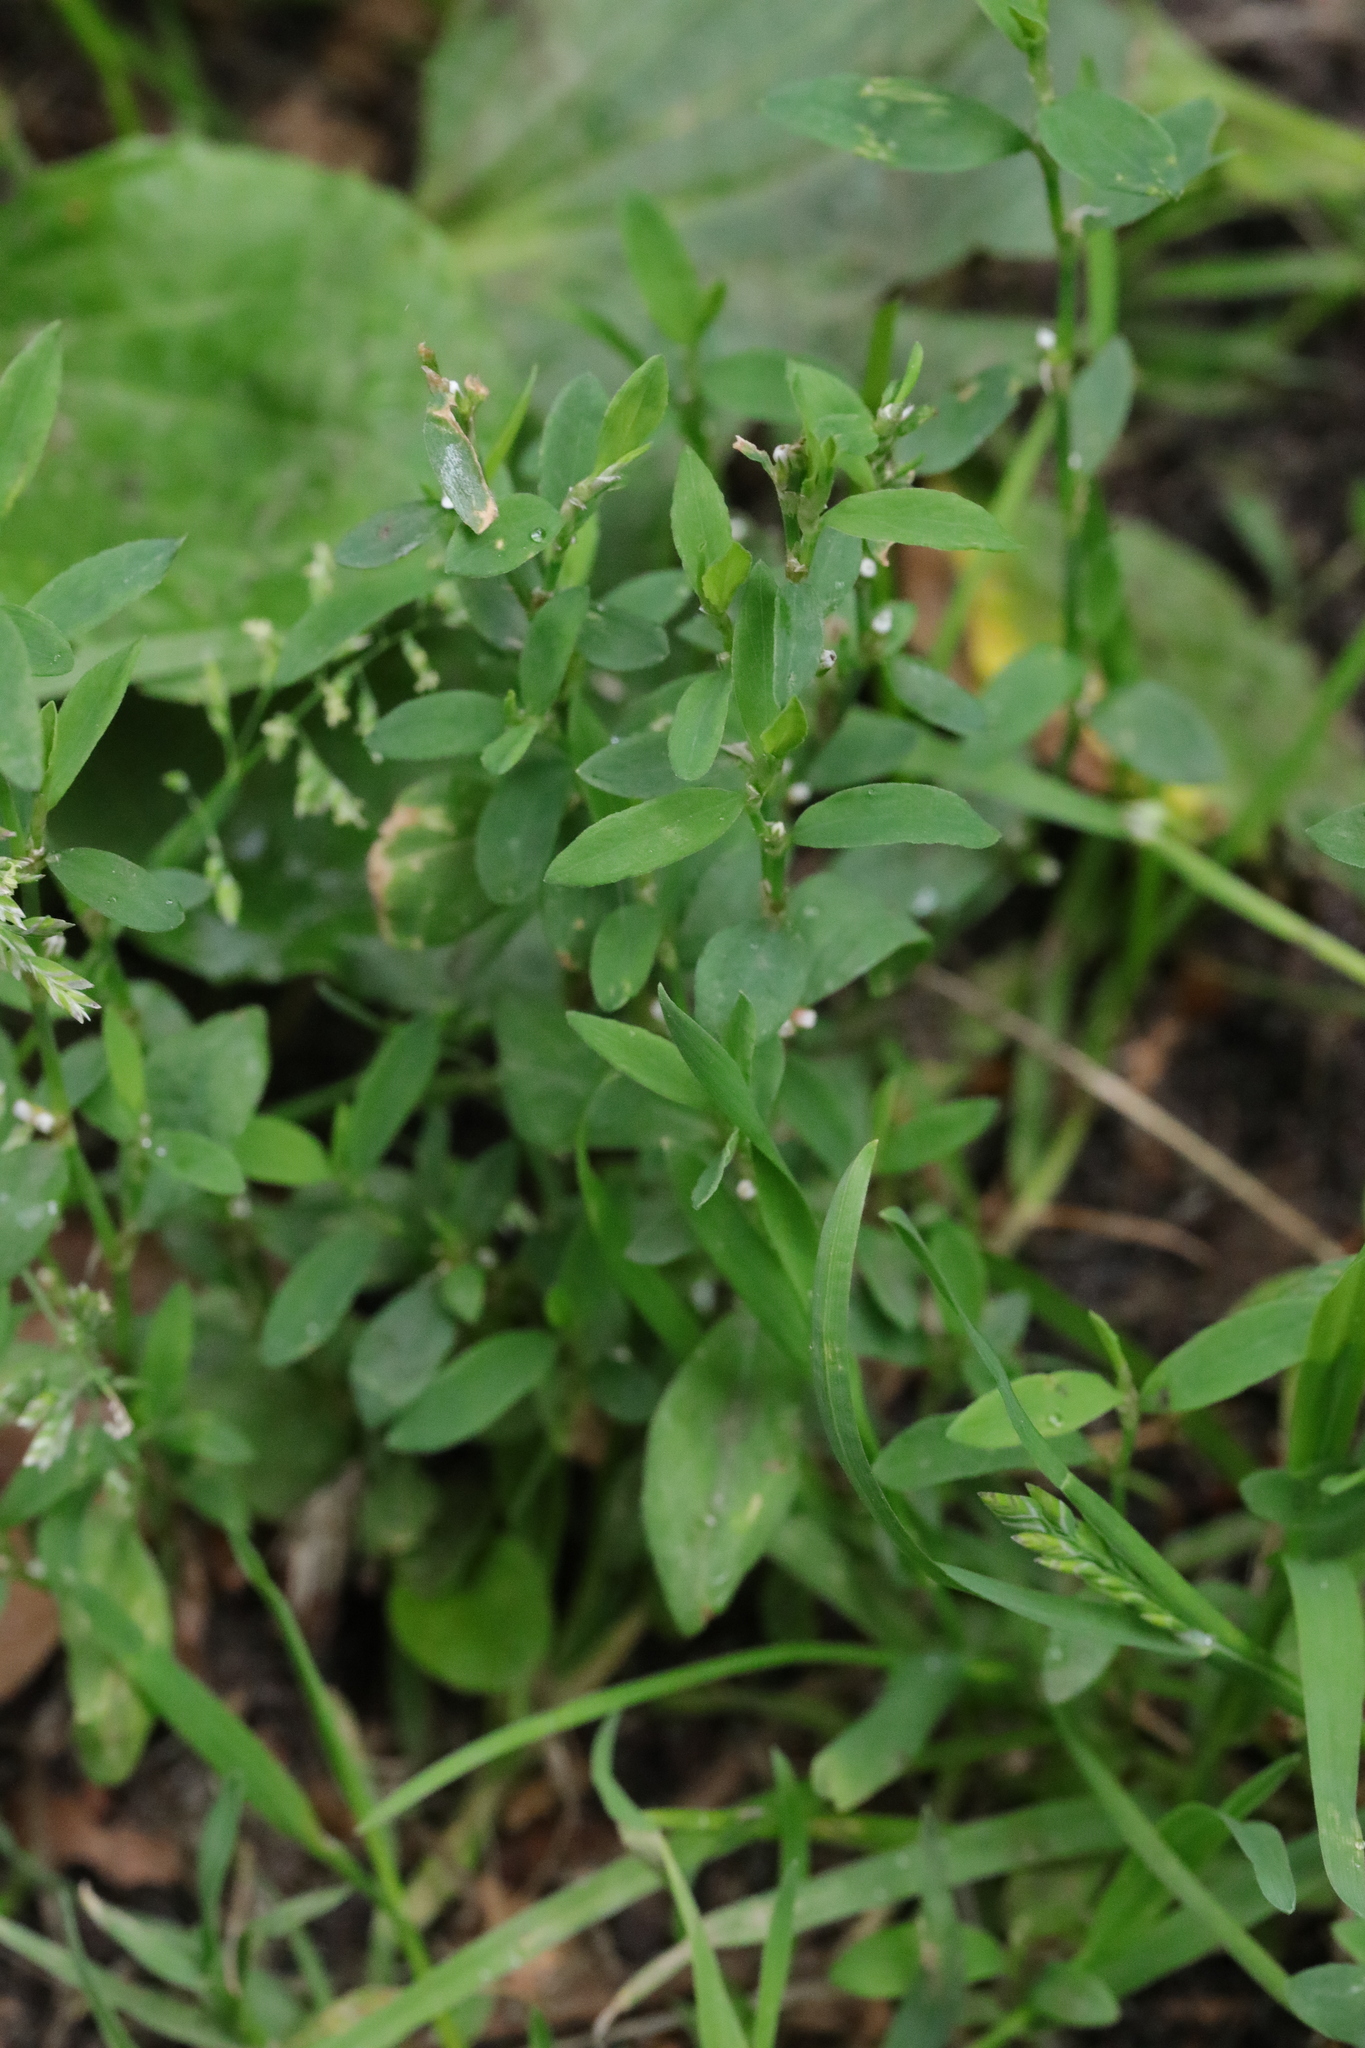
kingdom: Plantae
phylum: Tracheophyta
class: Magnoliopsida
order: Caryophyllales
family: Polygonaceae
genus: Polygonum
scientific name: Polygonum aviculare
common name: Prostrate knotweed
